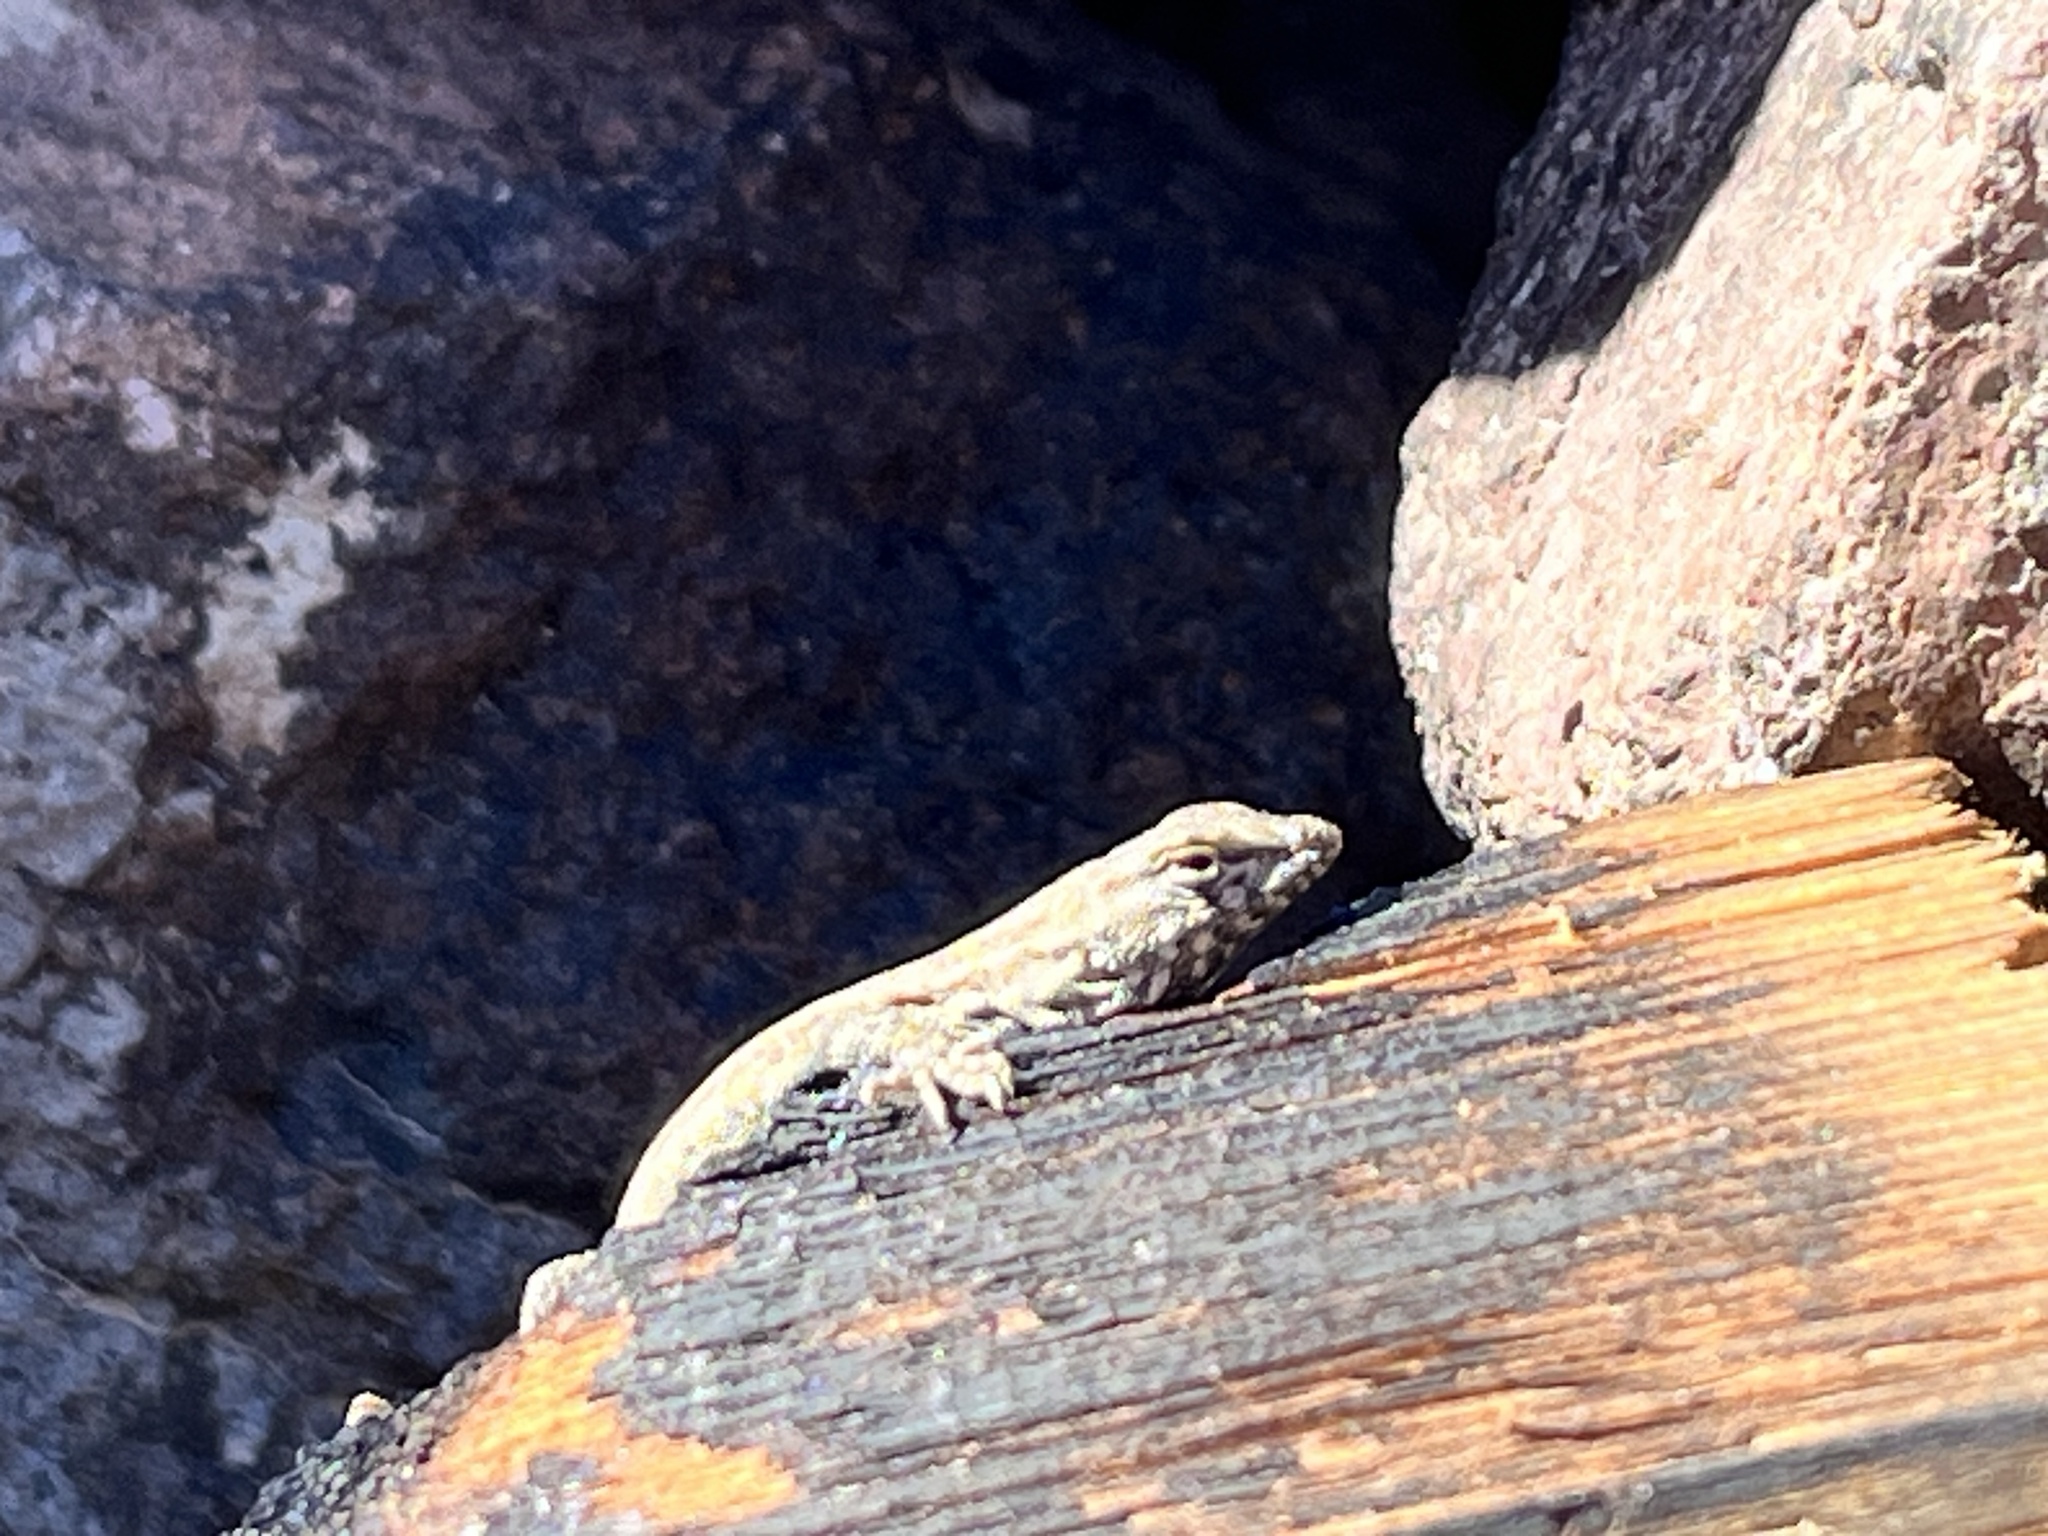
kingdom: Animalia
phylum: Chordata
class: Squamata
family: Phrynosomatidae
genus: Uta
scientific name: Uta stansburiana
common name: Side-blotched lizard
